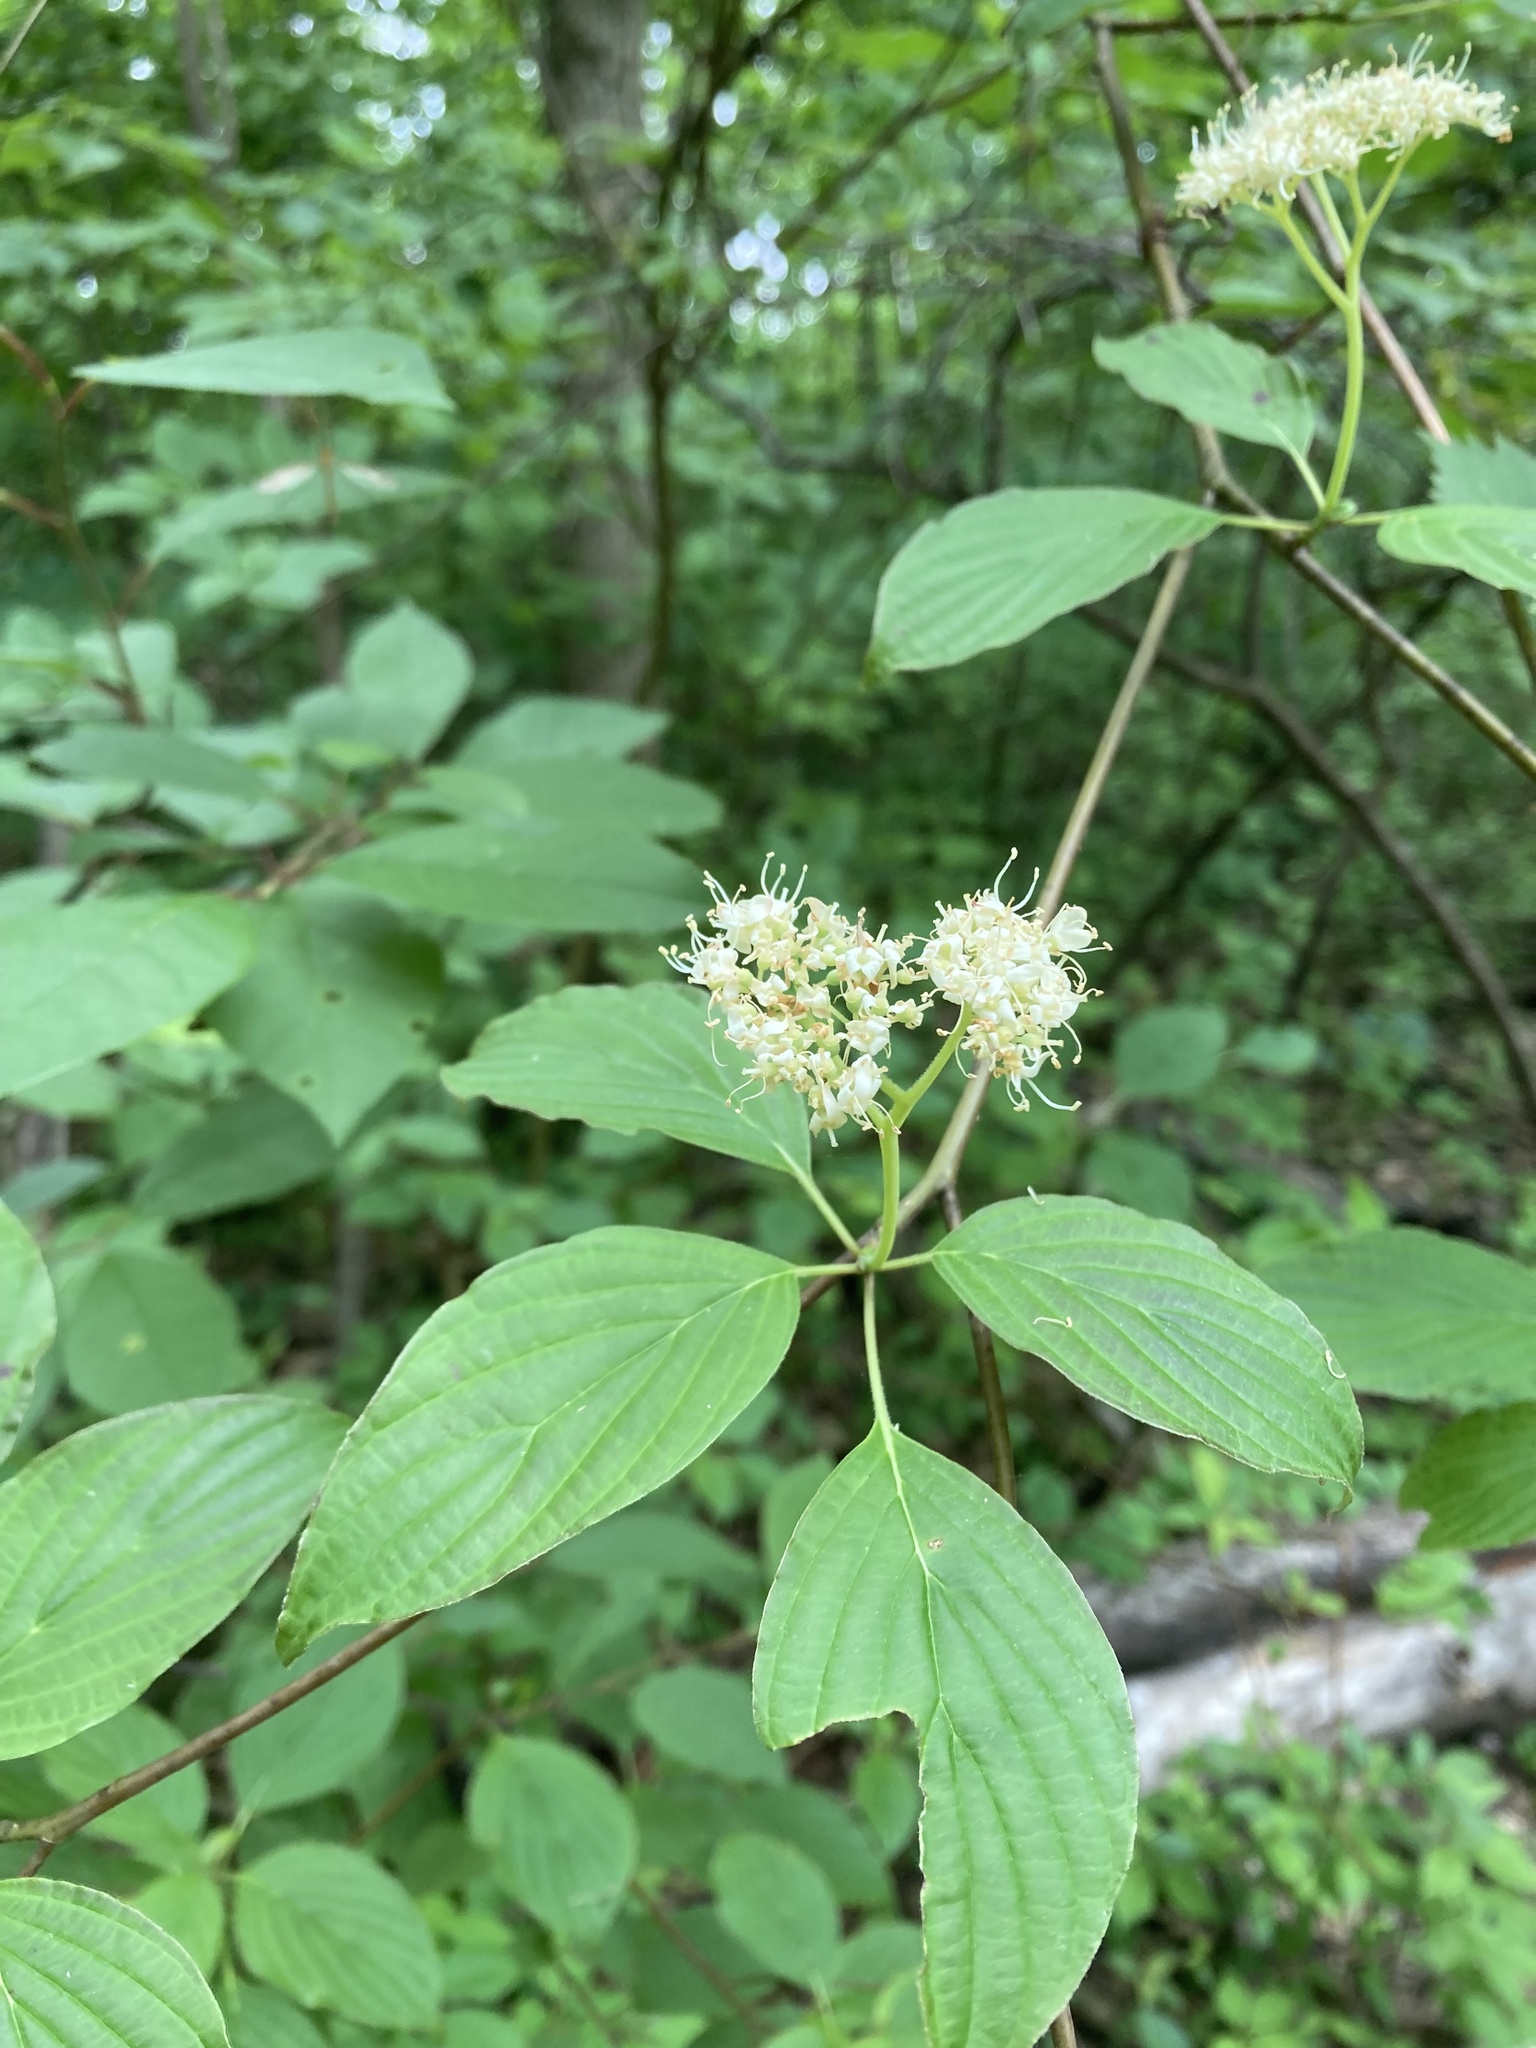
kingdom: Plantae
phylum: Tracheophyta
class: Magnoliopsida
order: Cornales
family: Cornaceae
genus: Cornus
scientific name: Cornus alternifolia
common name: Pagoda dogwood
